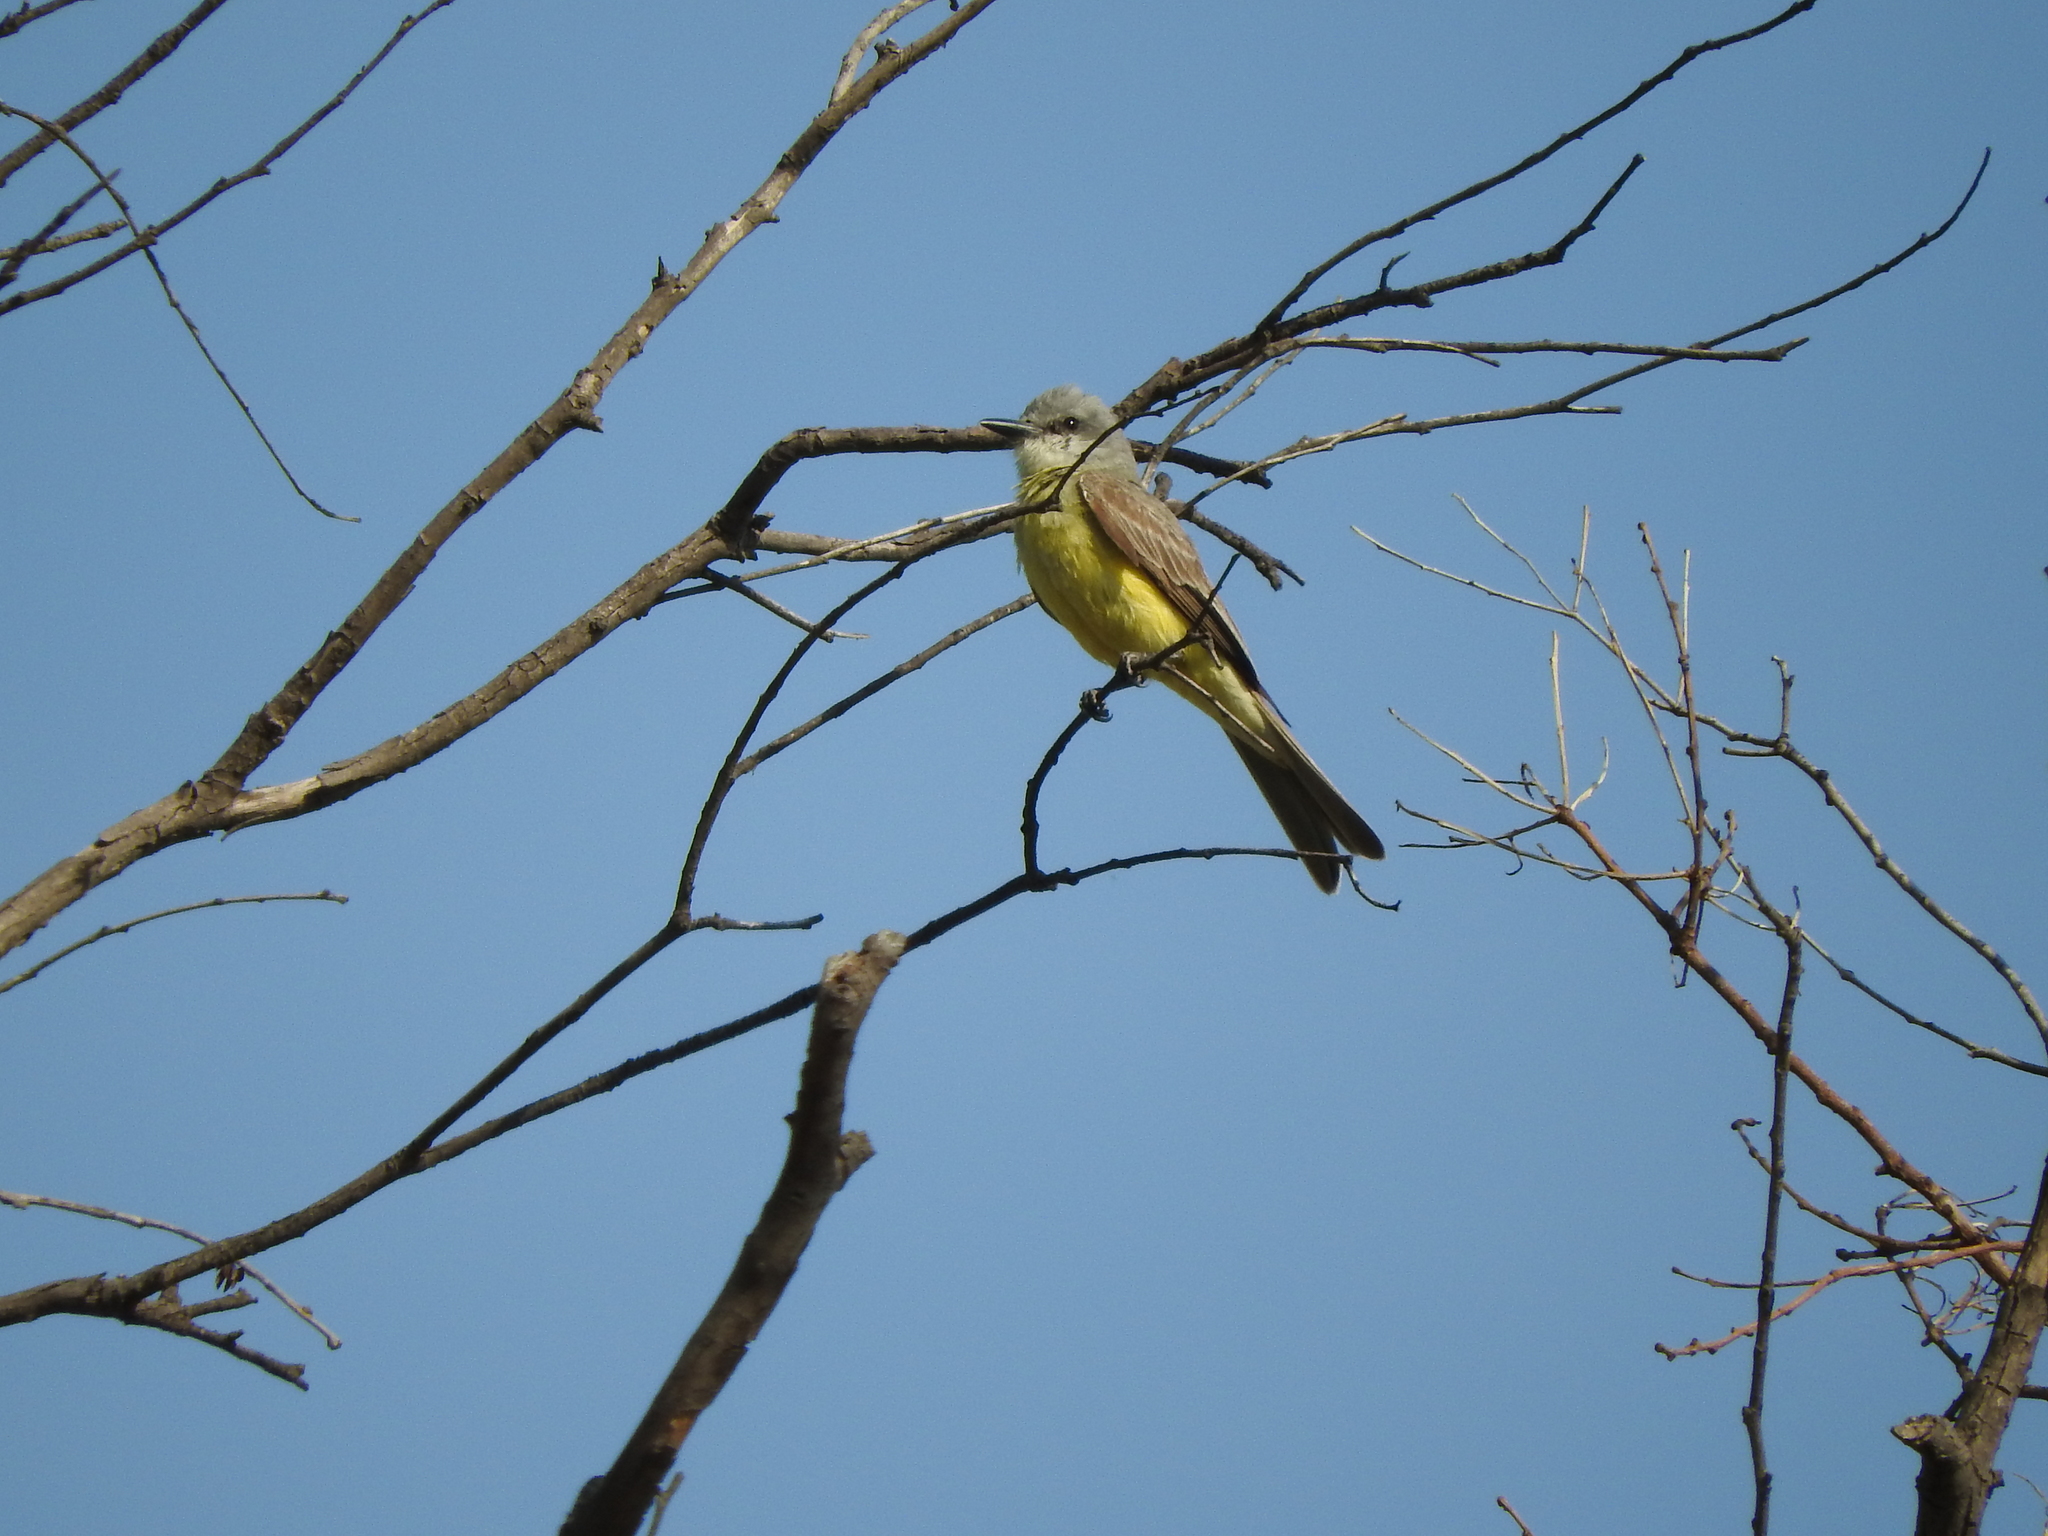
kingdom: Animalia
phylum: Chordata
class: Aves
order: Passeriformes
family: Tyrannidae
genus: Tyrannus
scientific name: Tyrannus melancholicus
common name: Tropical kingbird
